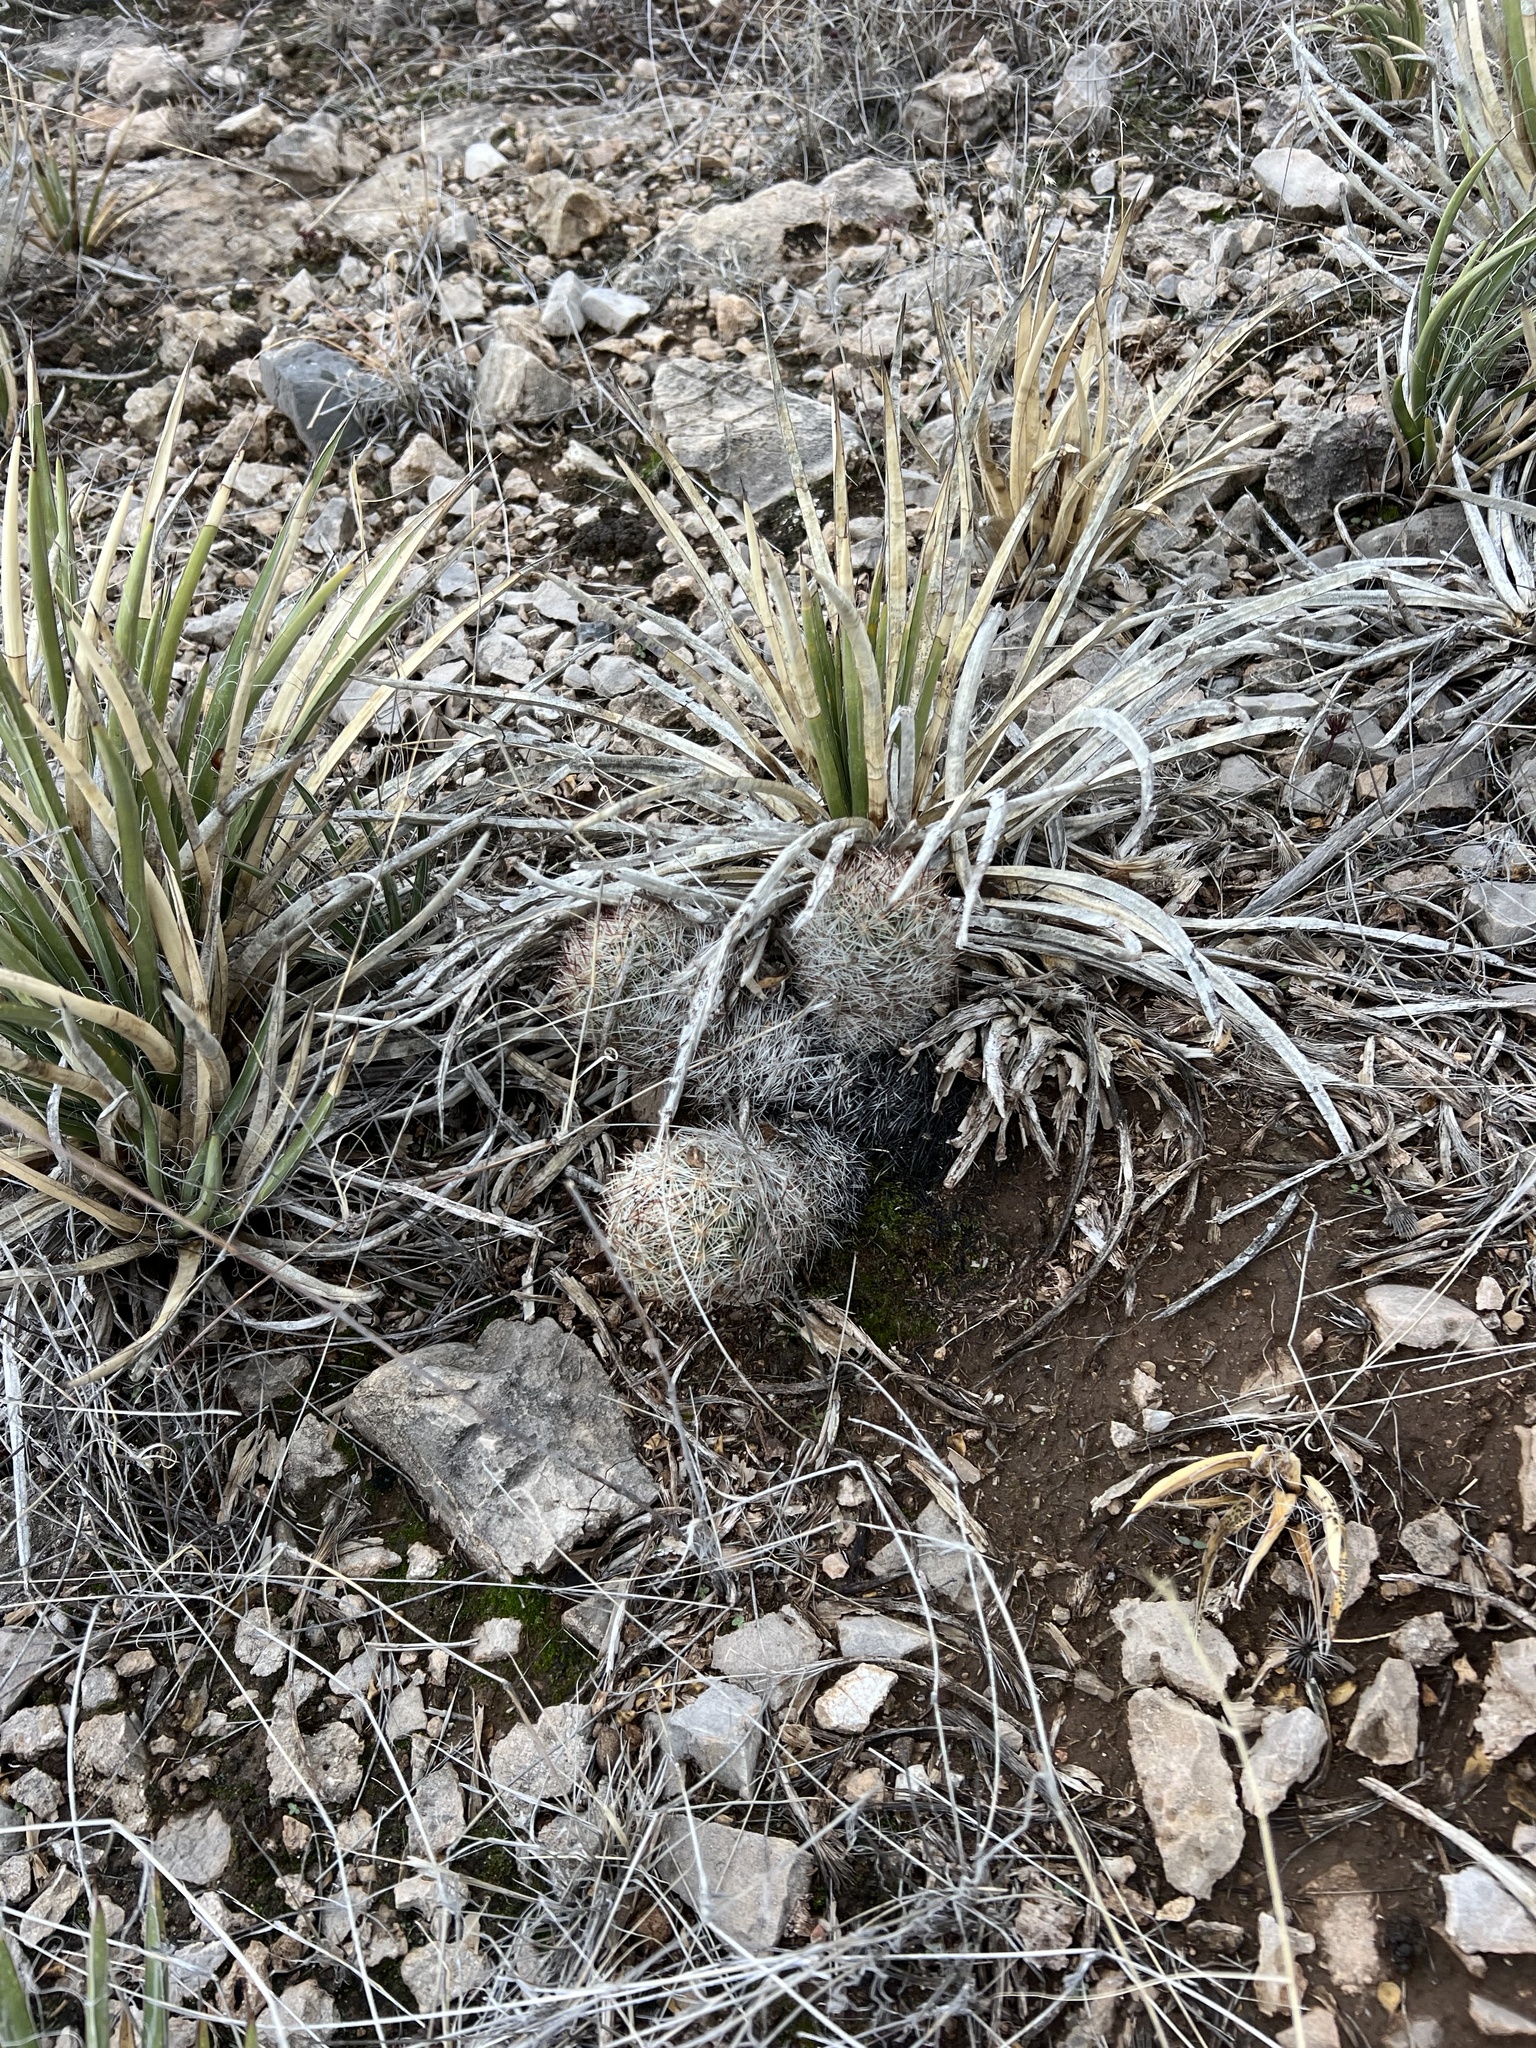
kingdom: Plantae
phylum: Tracheophyta
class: Magnoliopsida
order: Caryophyllales
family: Cactaceae
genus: Pelecyphora
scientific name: Pelecyphora vivipara
